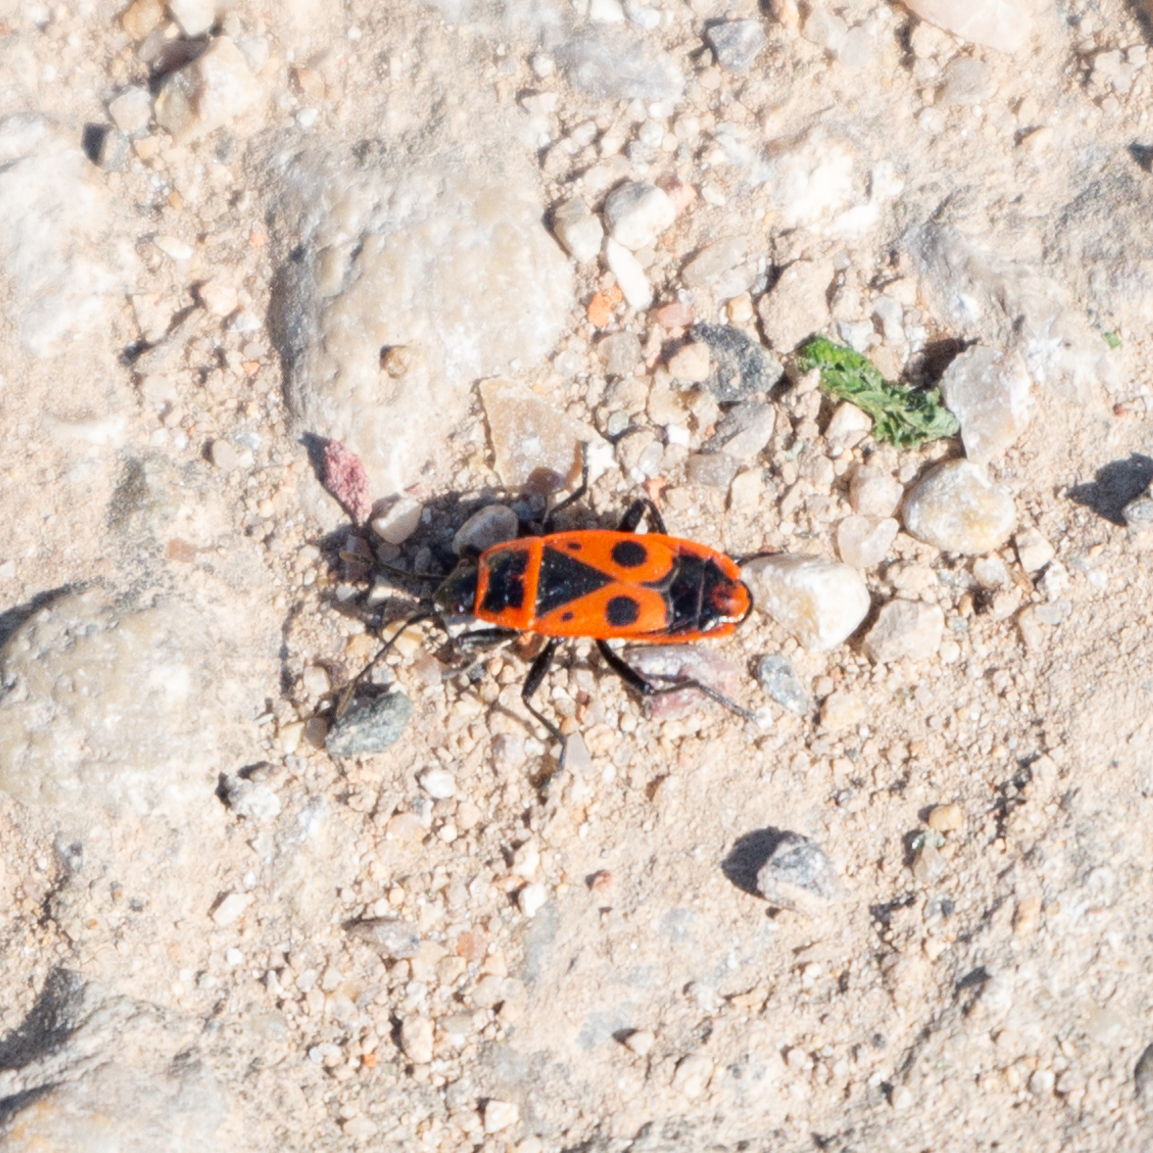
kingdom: Animalia
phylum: Arthropoda
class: Insecta
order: Hemiptera
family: Pyrrhocoridae
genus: Pyrrhocoris
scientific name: Pyrrhocoris apterus
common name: Firebug
